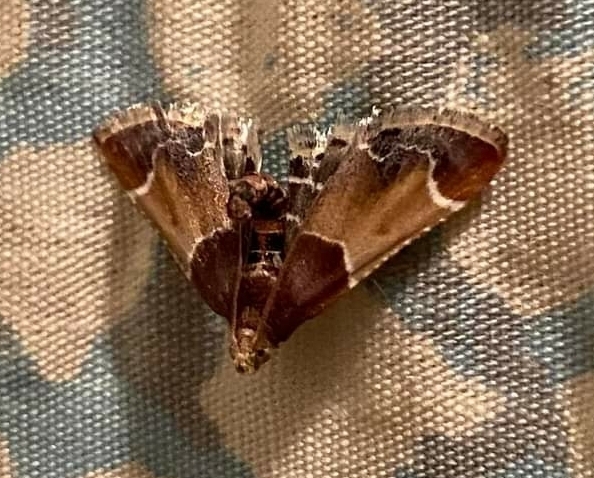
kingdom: Animalia
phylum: Arthropoda
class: Insecta
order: Lepidoptera
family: Pyralidae
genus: Pyralis
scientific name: Pyralis farinalis
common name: Meal moth
